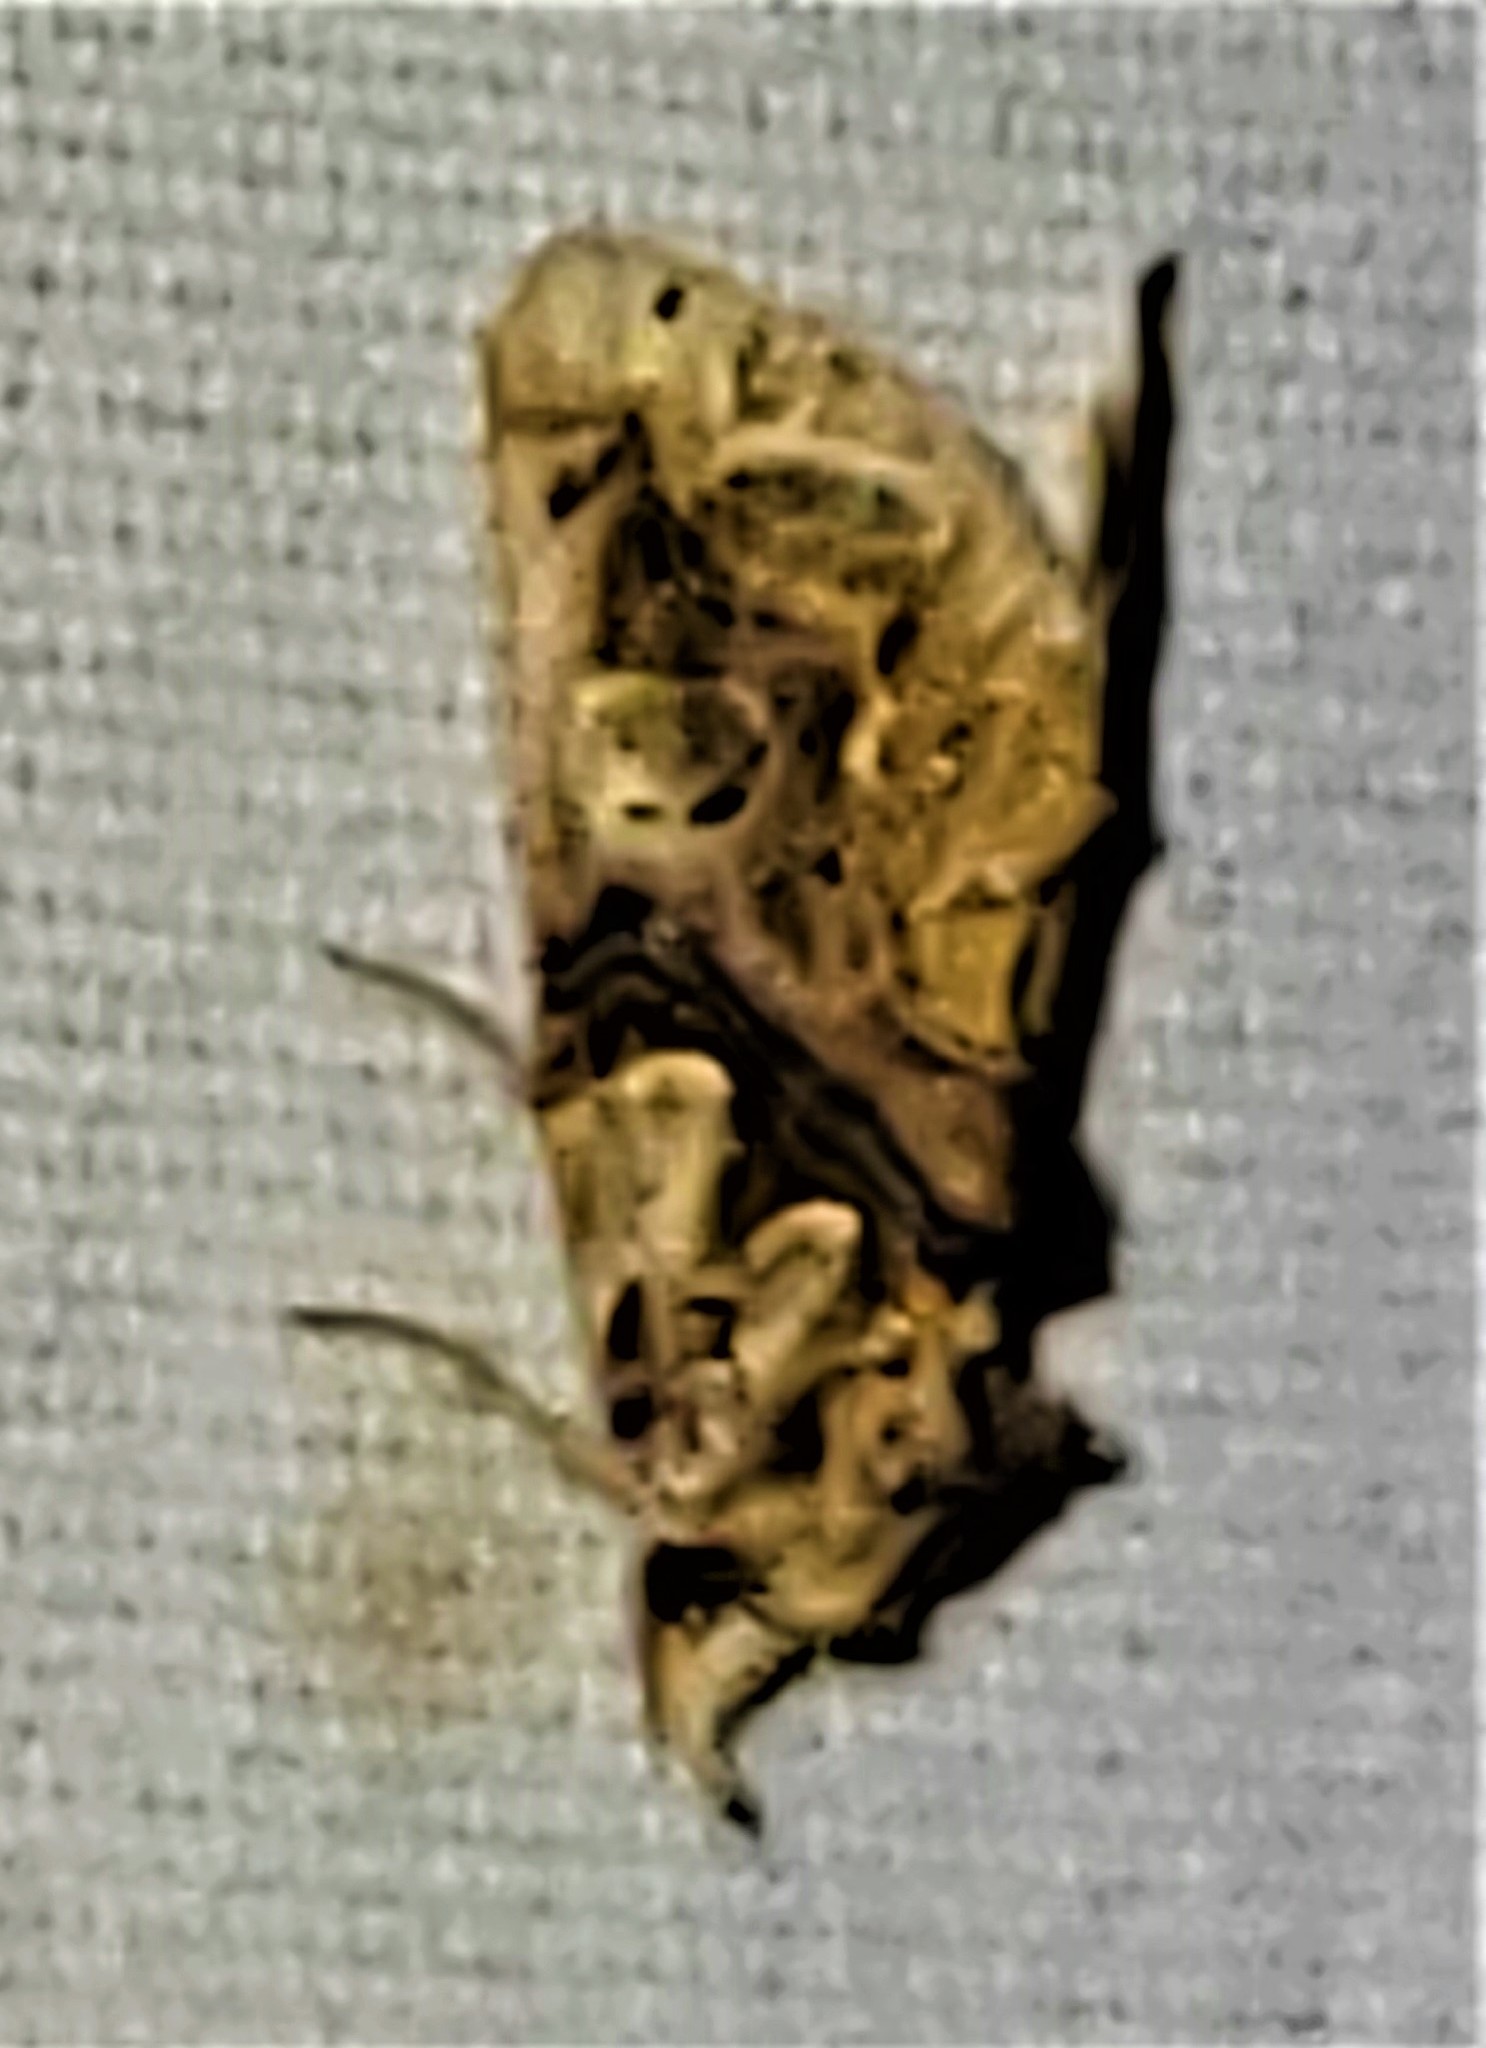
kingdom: Animalia
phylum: Arthropoda
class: Insecta
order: Lepidoptera
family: Erebidae
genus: Plusiodonta
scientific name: Plusiodonta compressipalpis
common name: Moonseed moth
